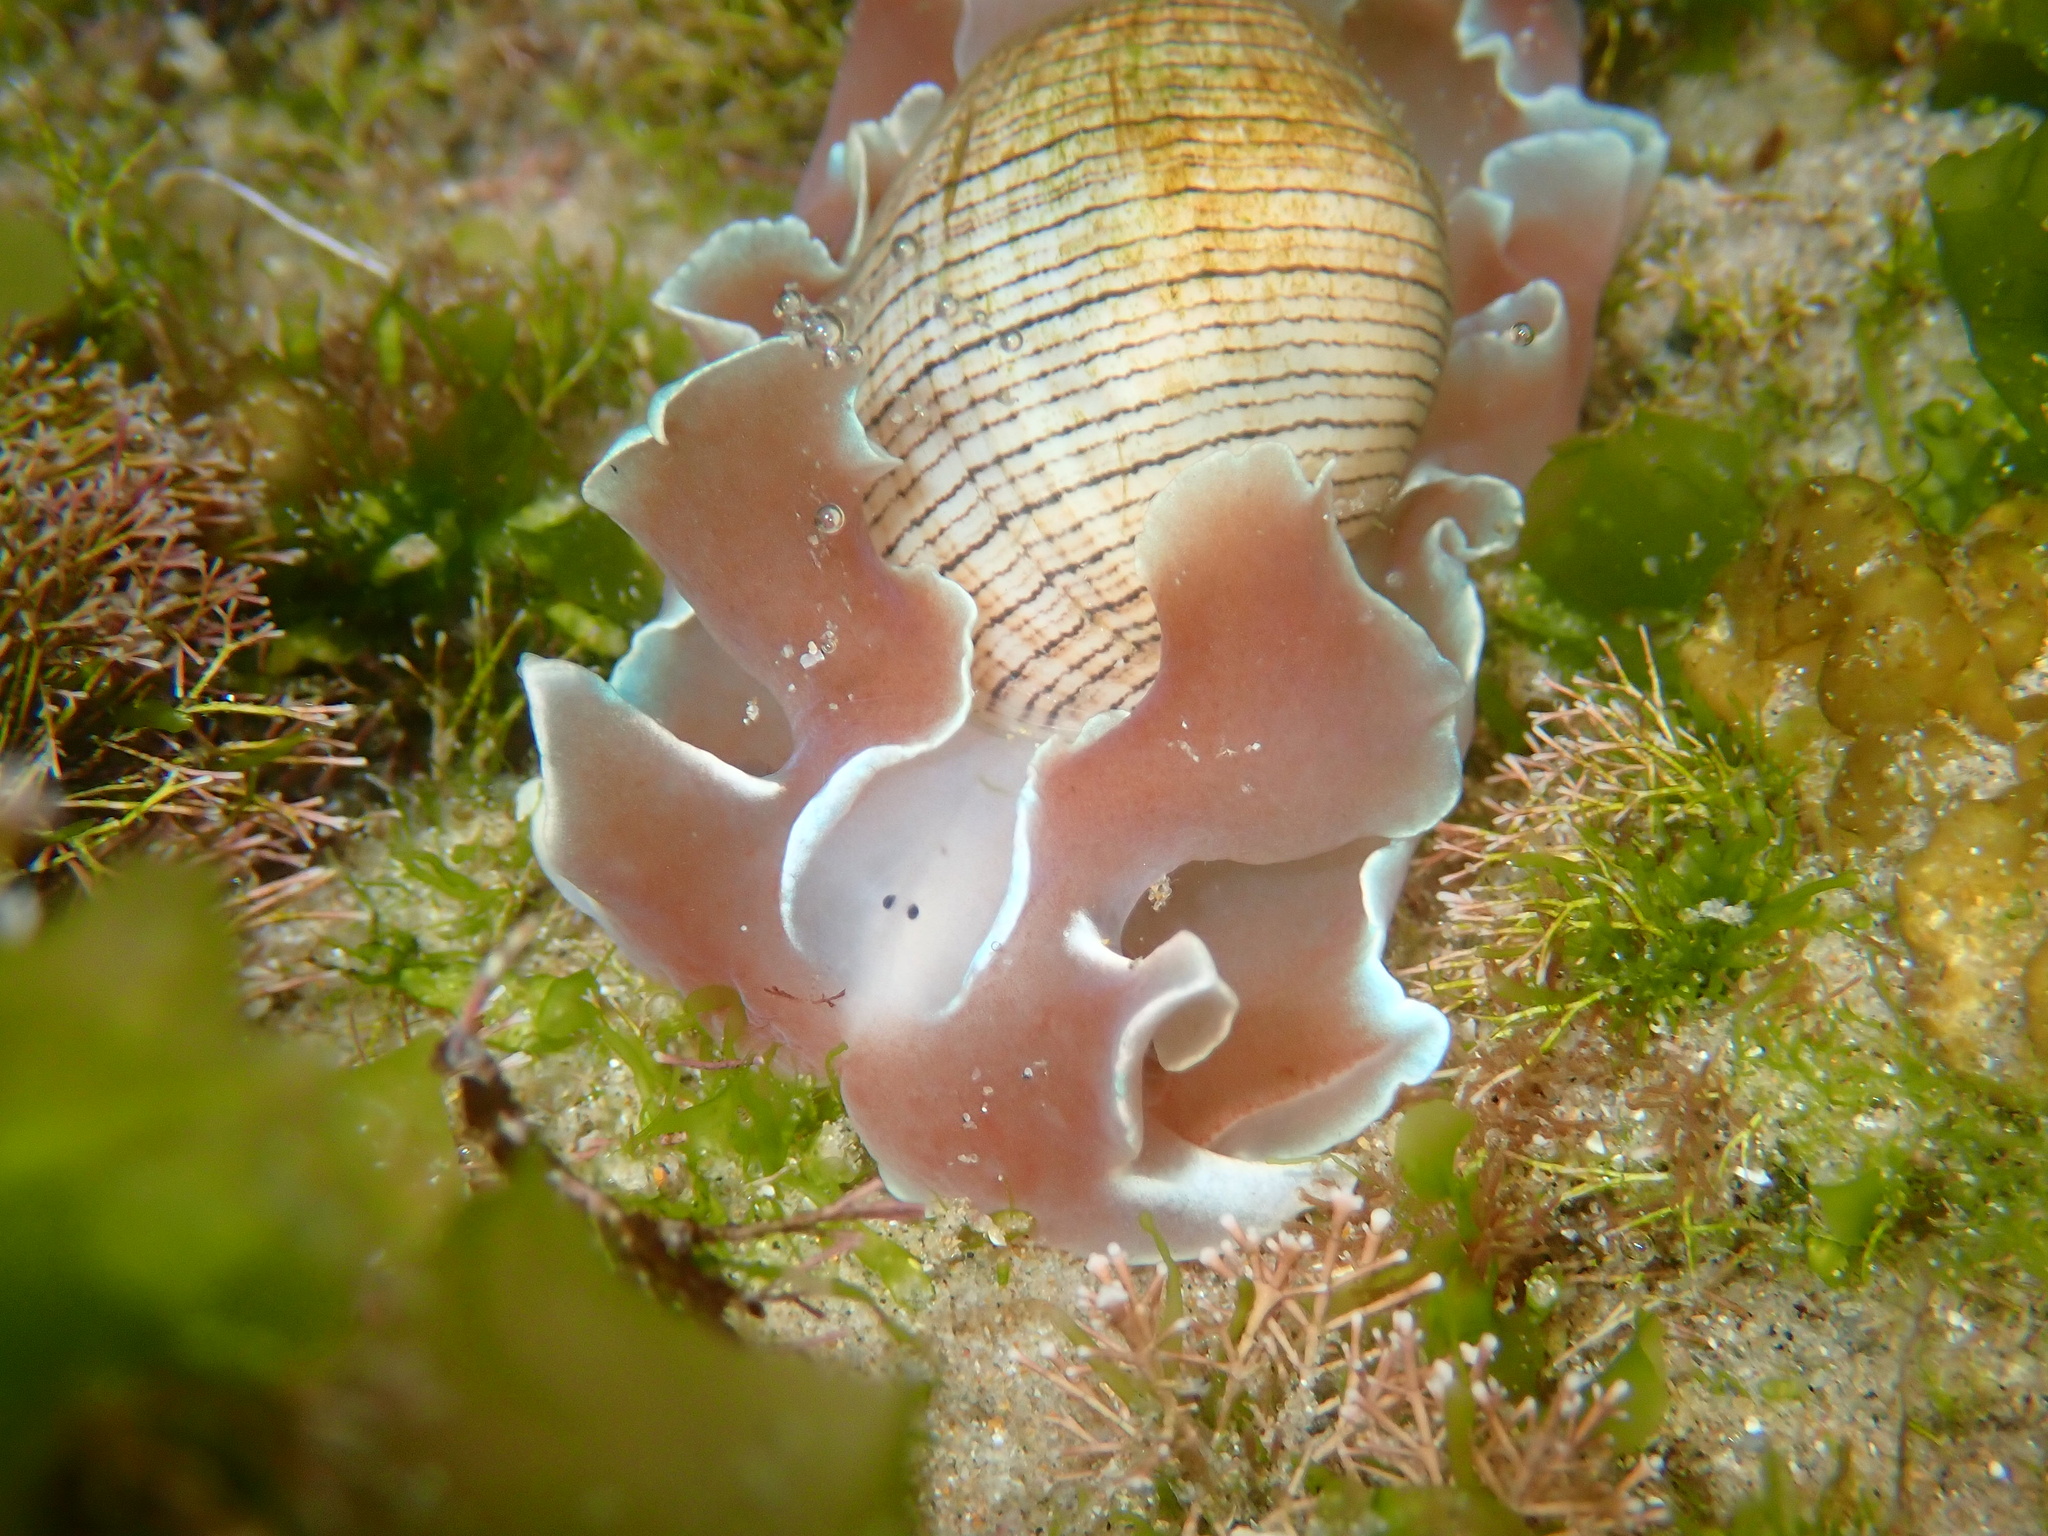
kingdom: Animalia
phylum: Mollusca
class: Gastropoda
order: Cephalaspidea
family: Aplustridae
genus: Hydatina
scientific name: Hydatina physis
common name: Brown-line paperbubble
